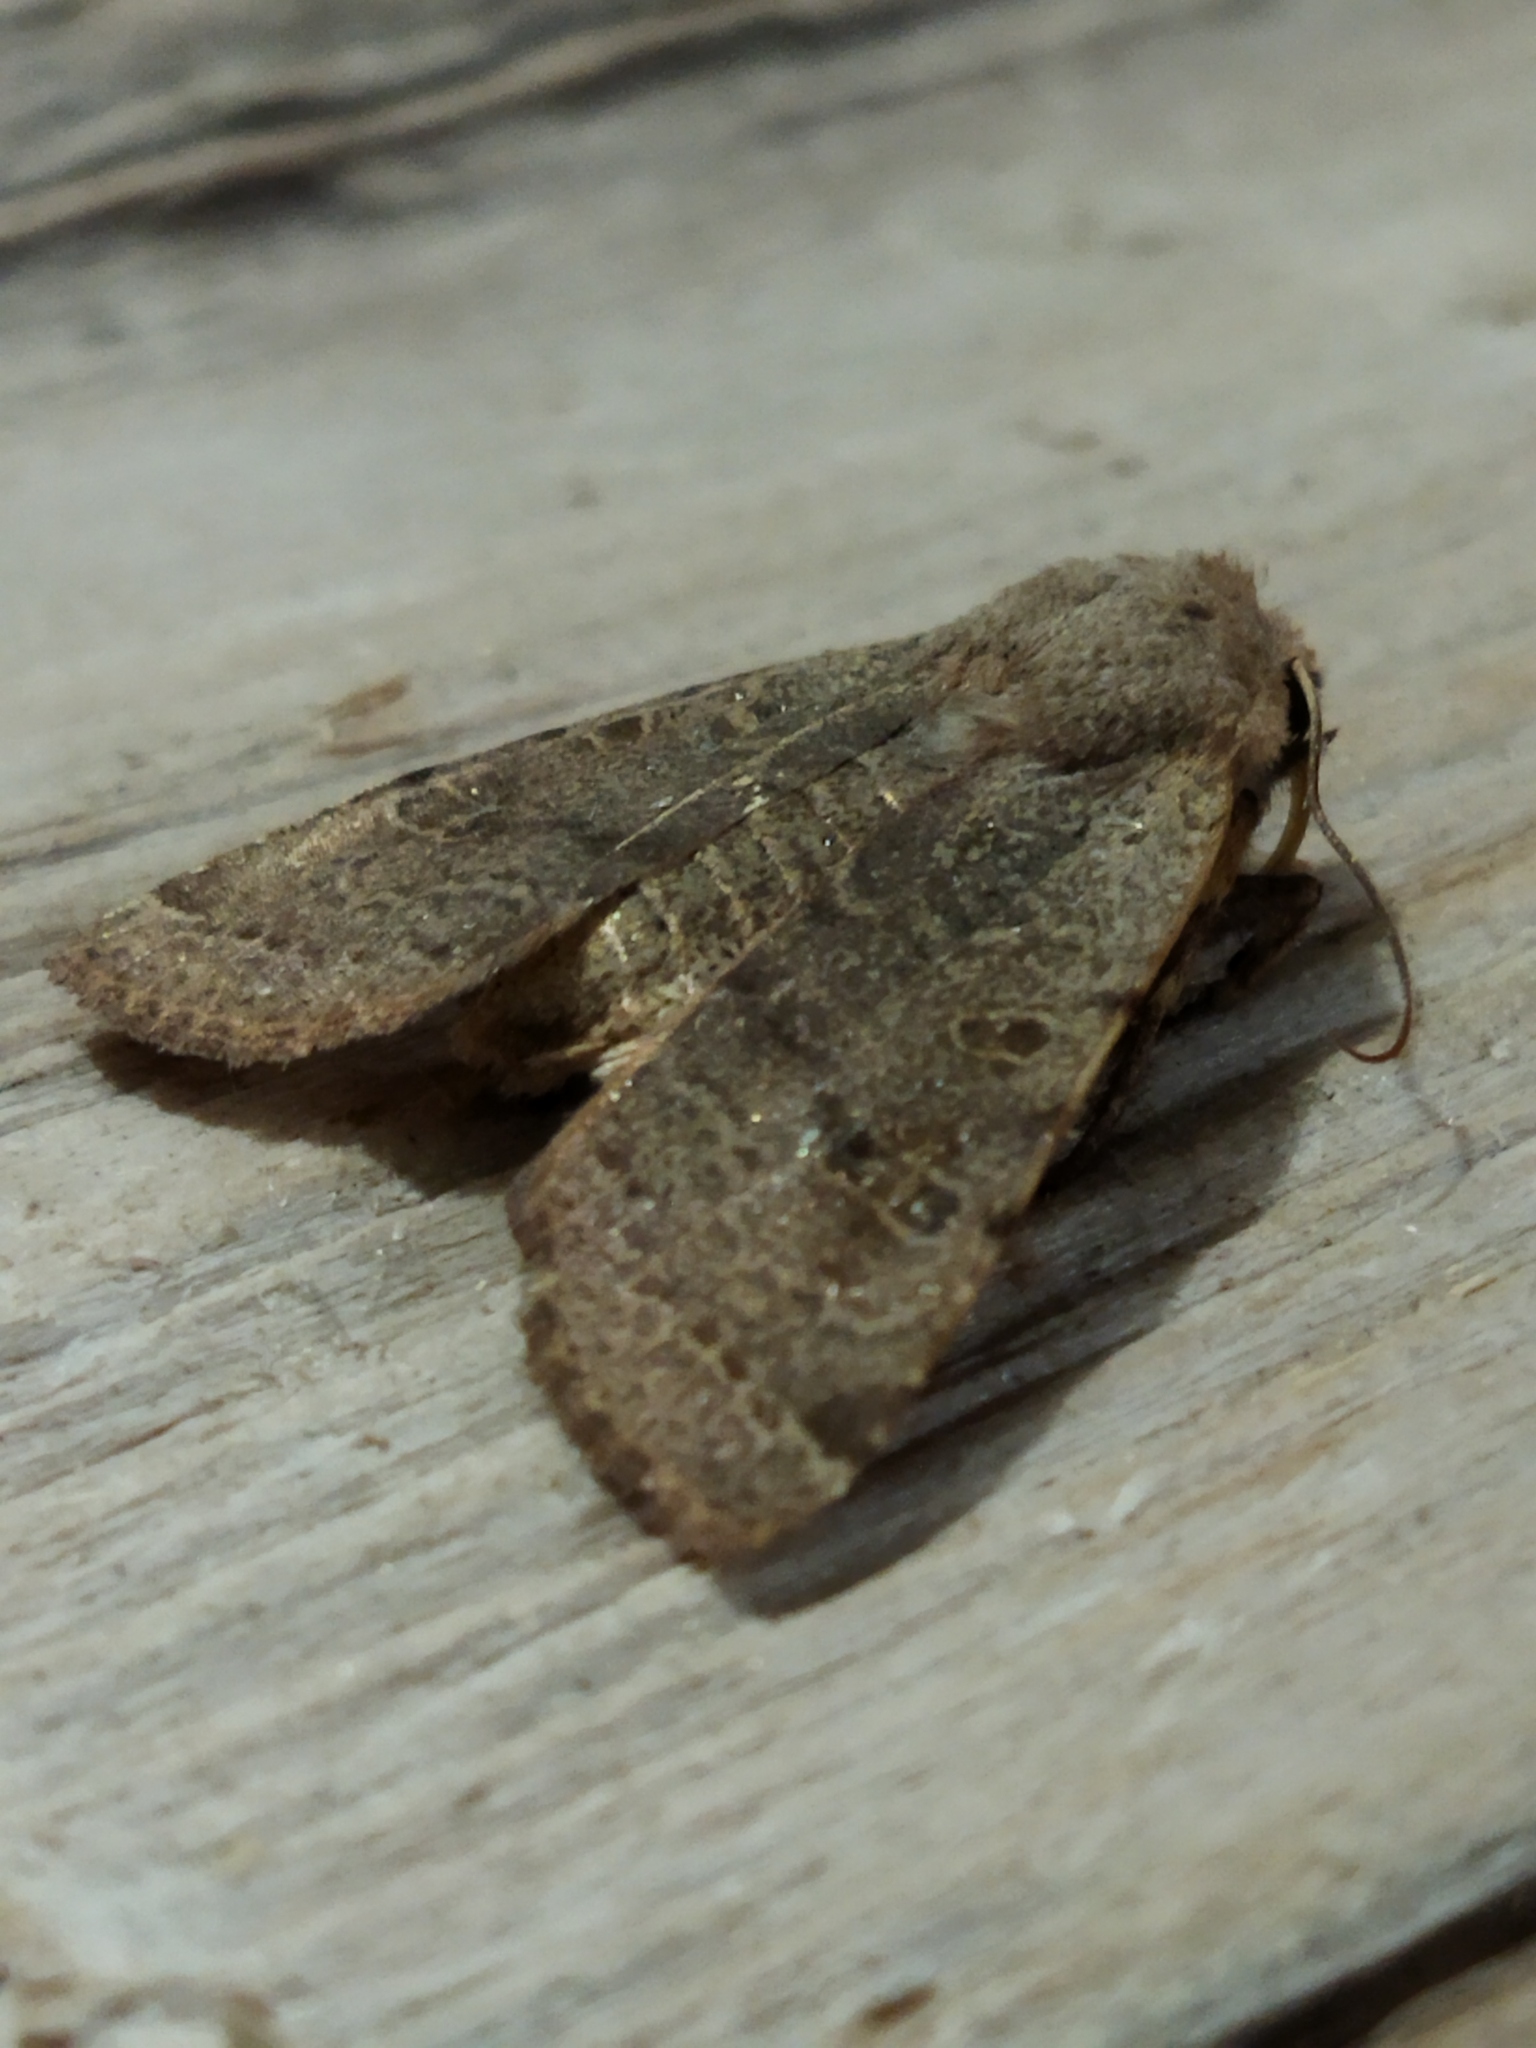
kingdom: Animalia
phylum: Arthropoda
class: Insecta
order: Lepidoptera
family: Noctuidae
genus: Agrochola
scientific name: Agrochola lychnidis
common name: Beaded chestnut
